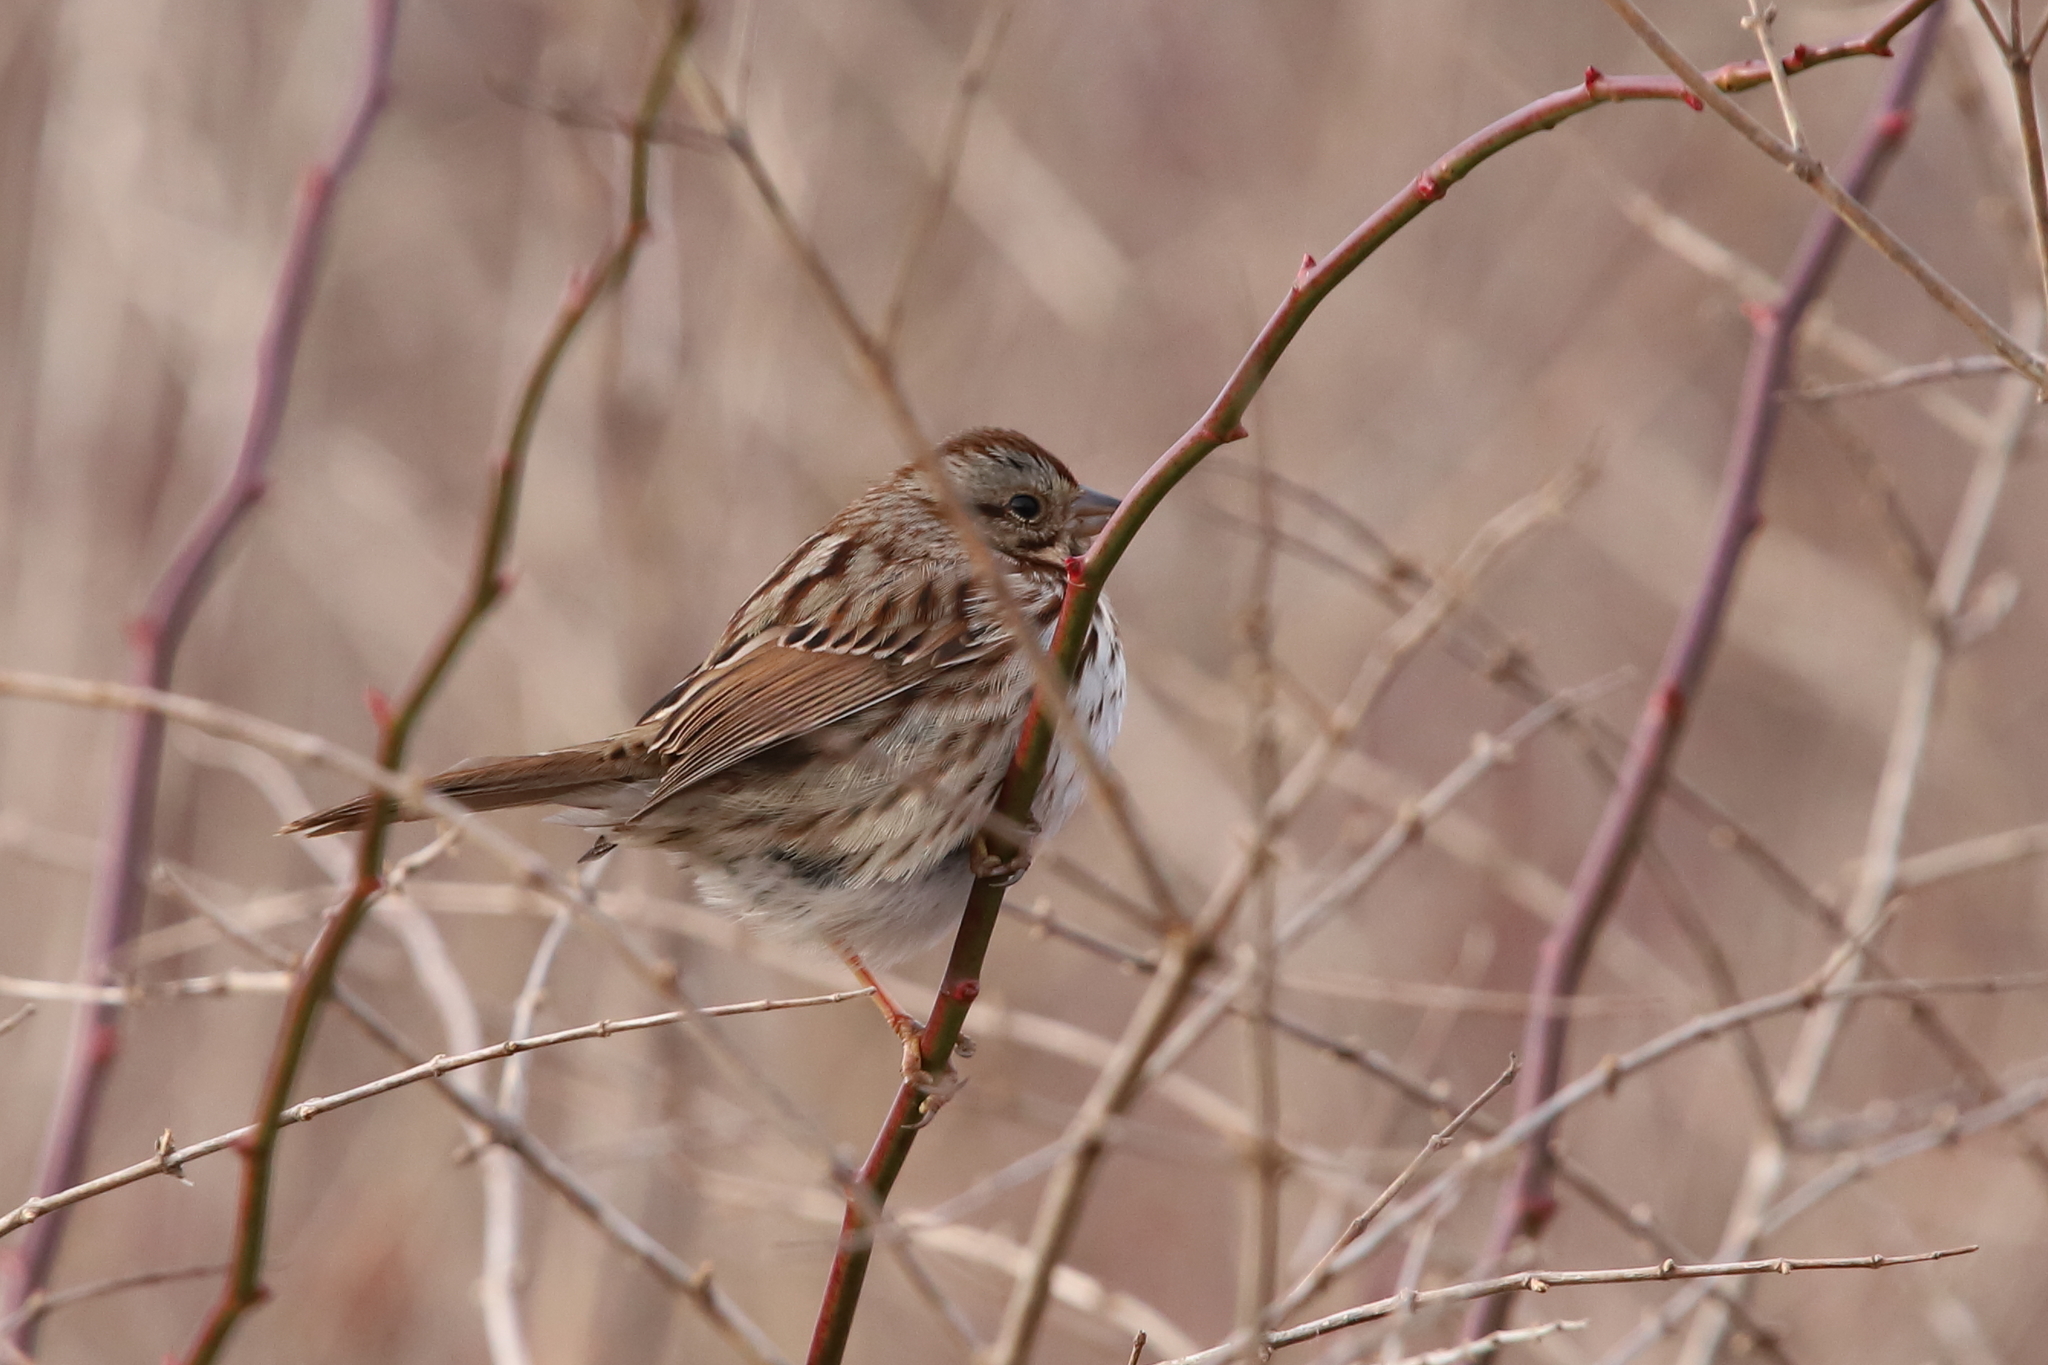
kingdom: Animalia
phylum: Chordata
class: Aves
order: Passeriformes
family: Passerellidae
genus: Melospiza
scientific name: Melospiza melodia
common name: Song sparrow
